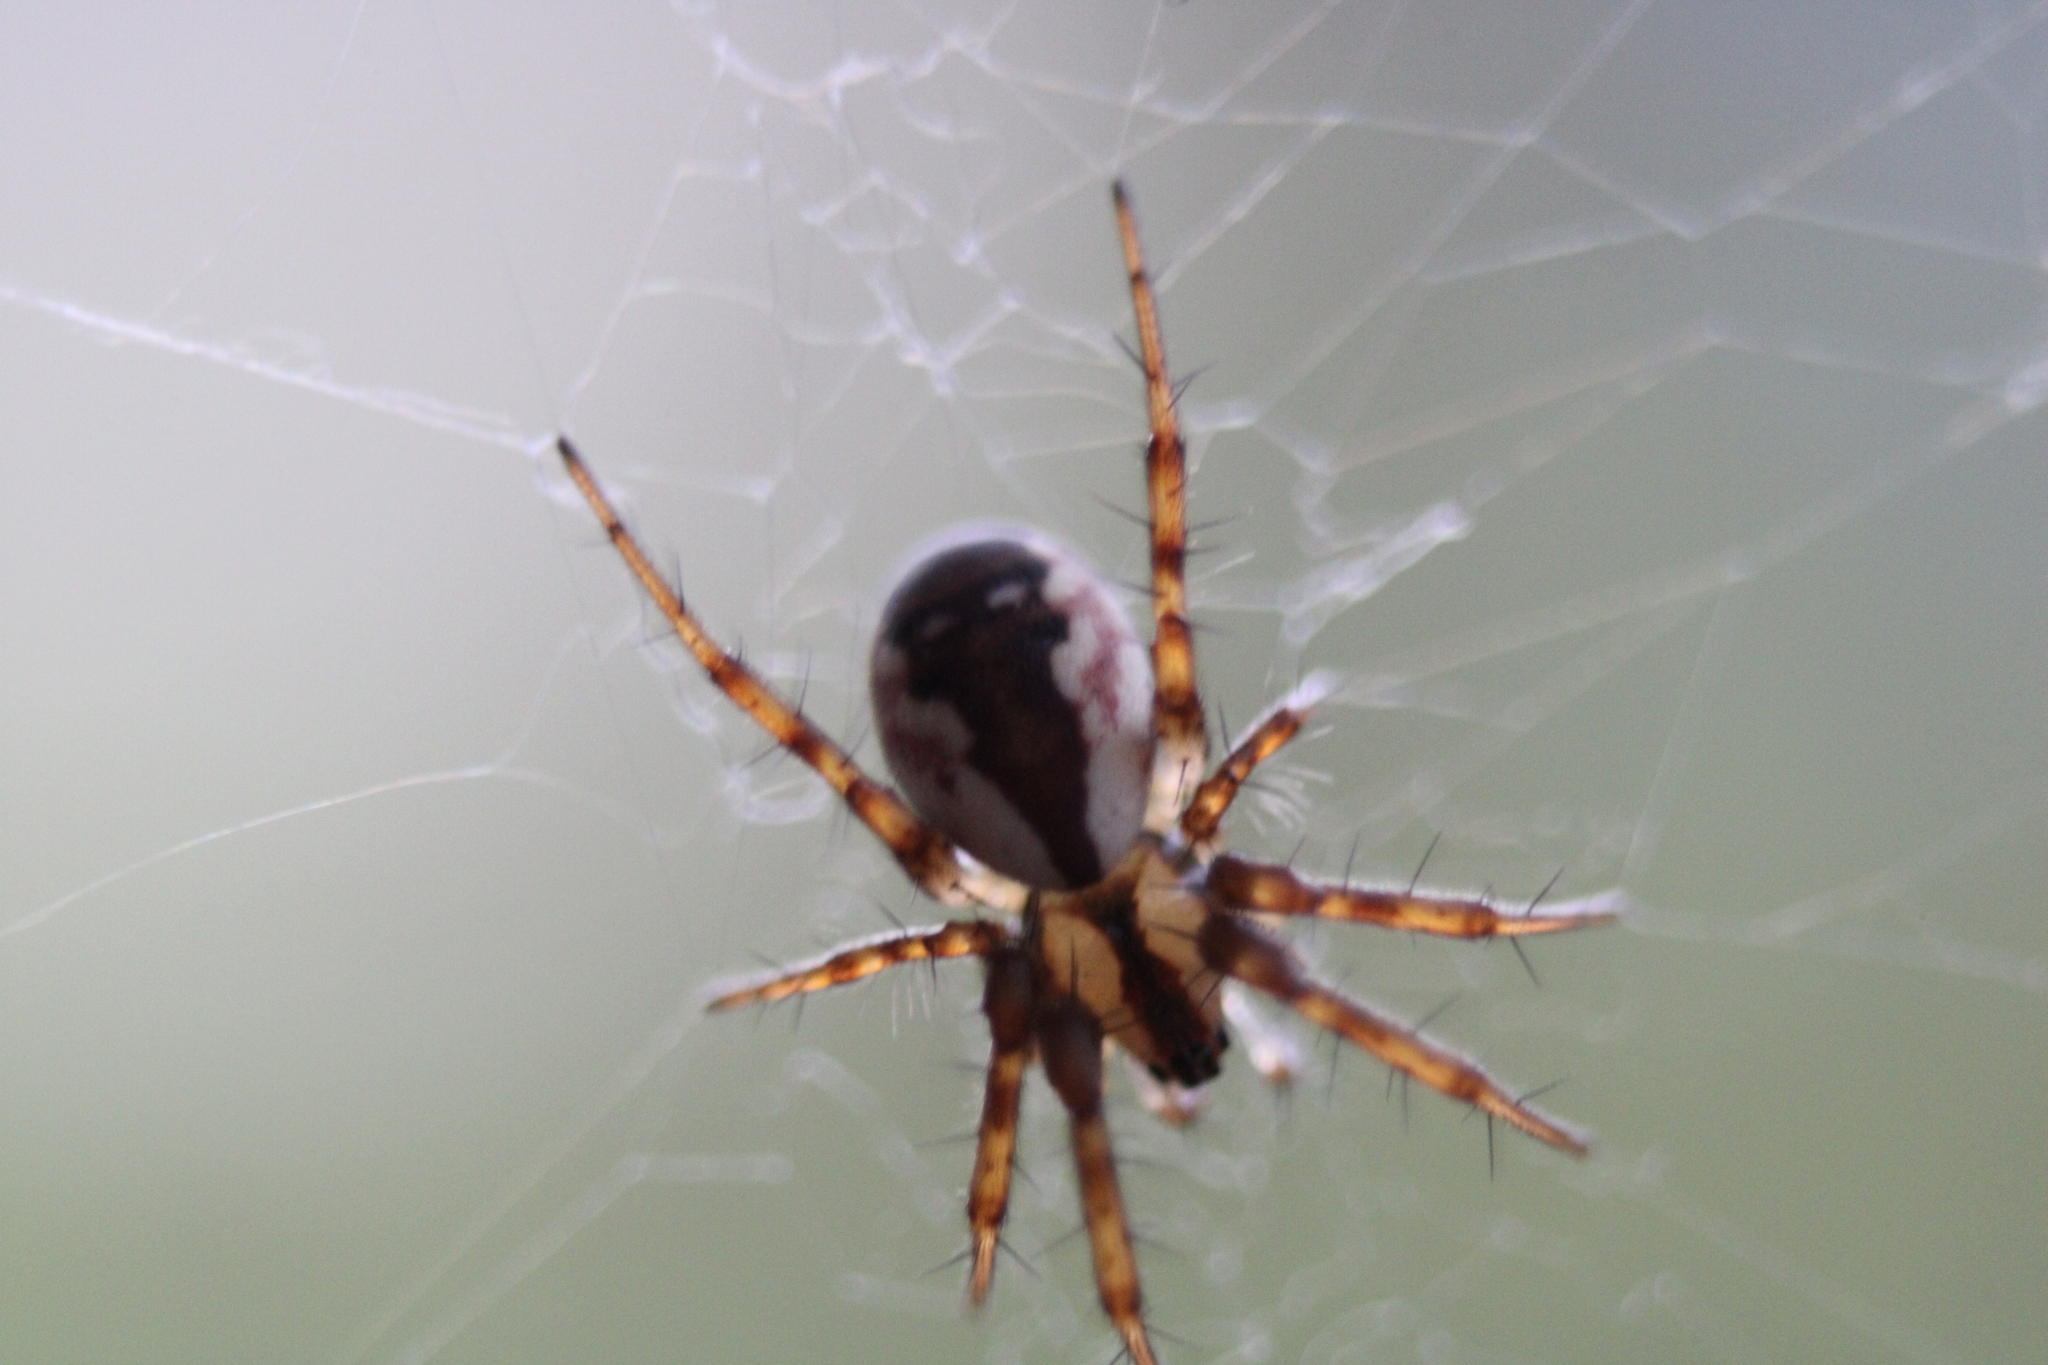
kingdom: Animalia
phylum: Arthropoda
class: Arachnida
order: Araneae
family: Araneidae
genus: Mangora
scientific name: Mangora placida
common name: Tuft-legged orbweaver
